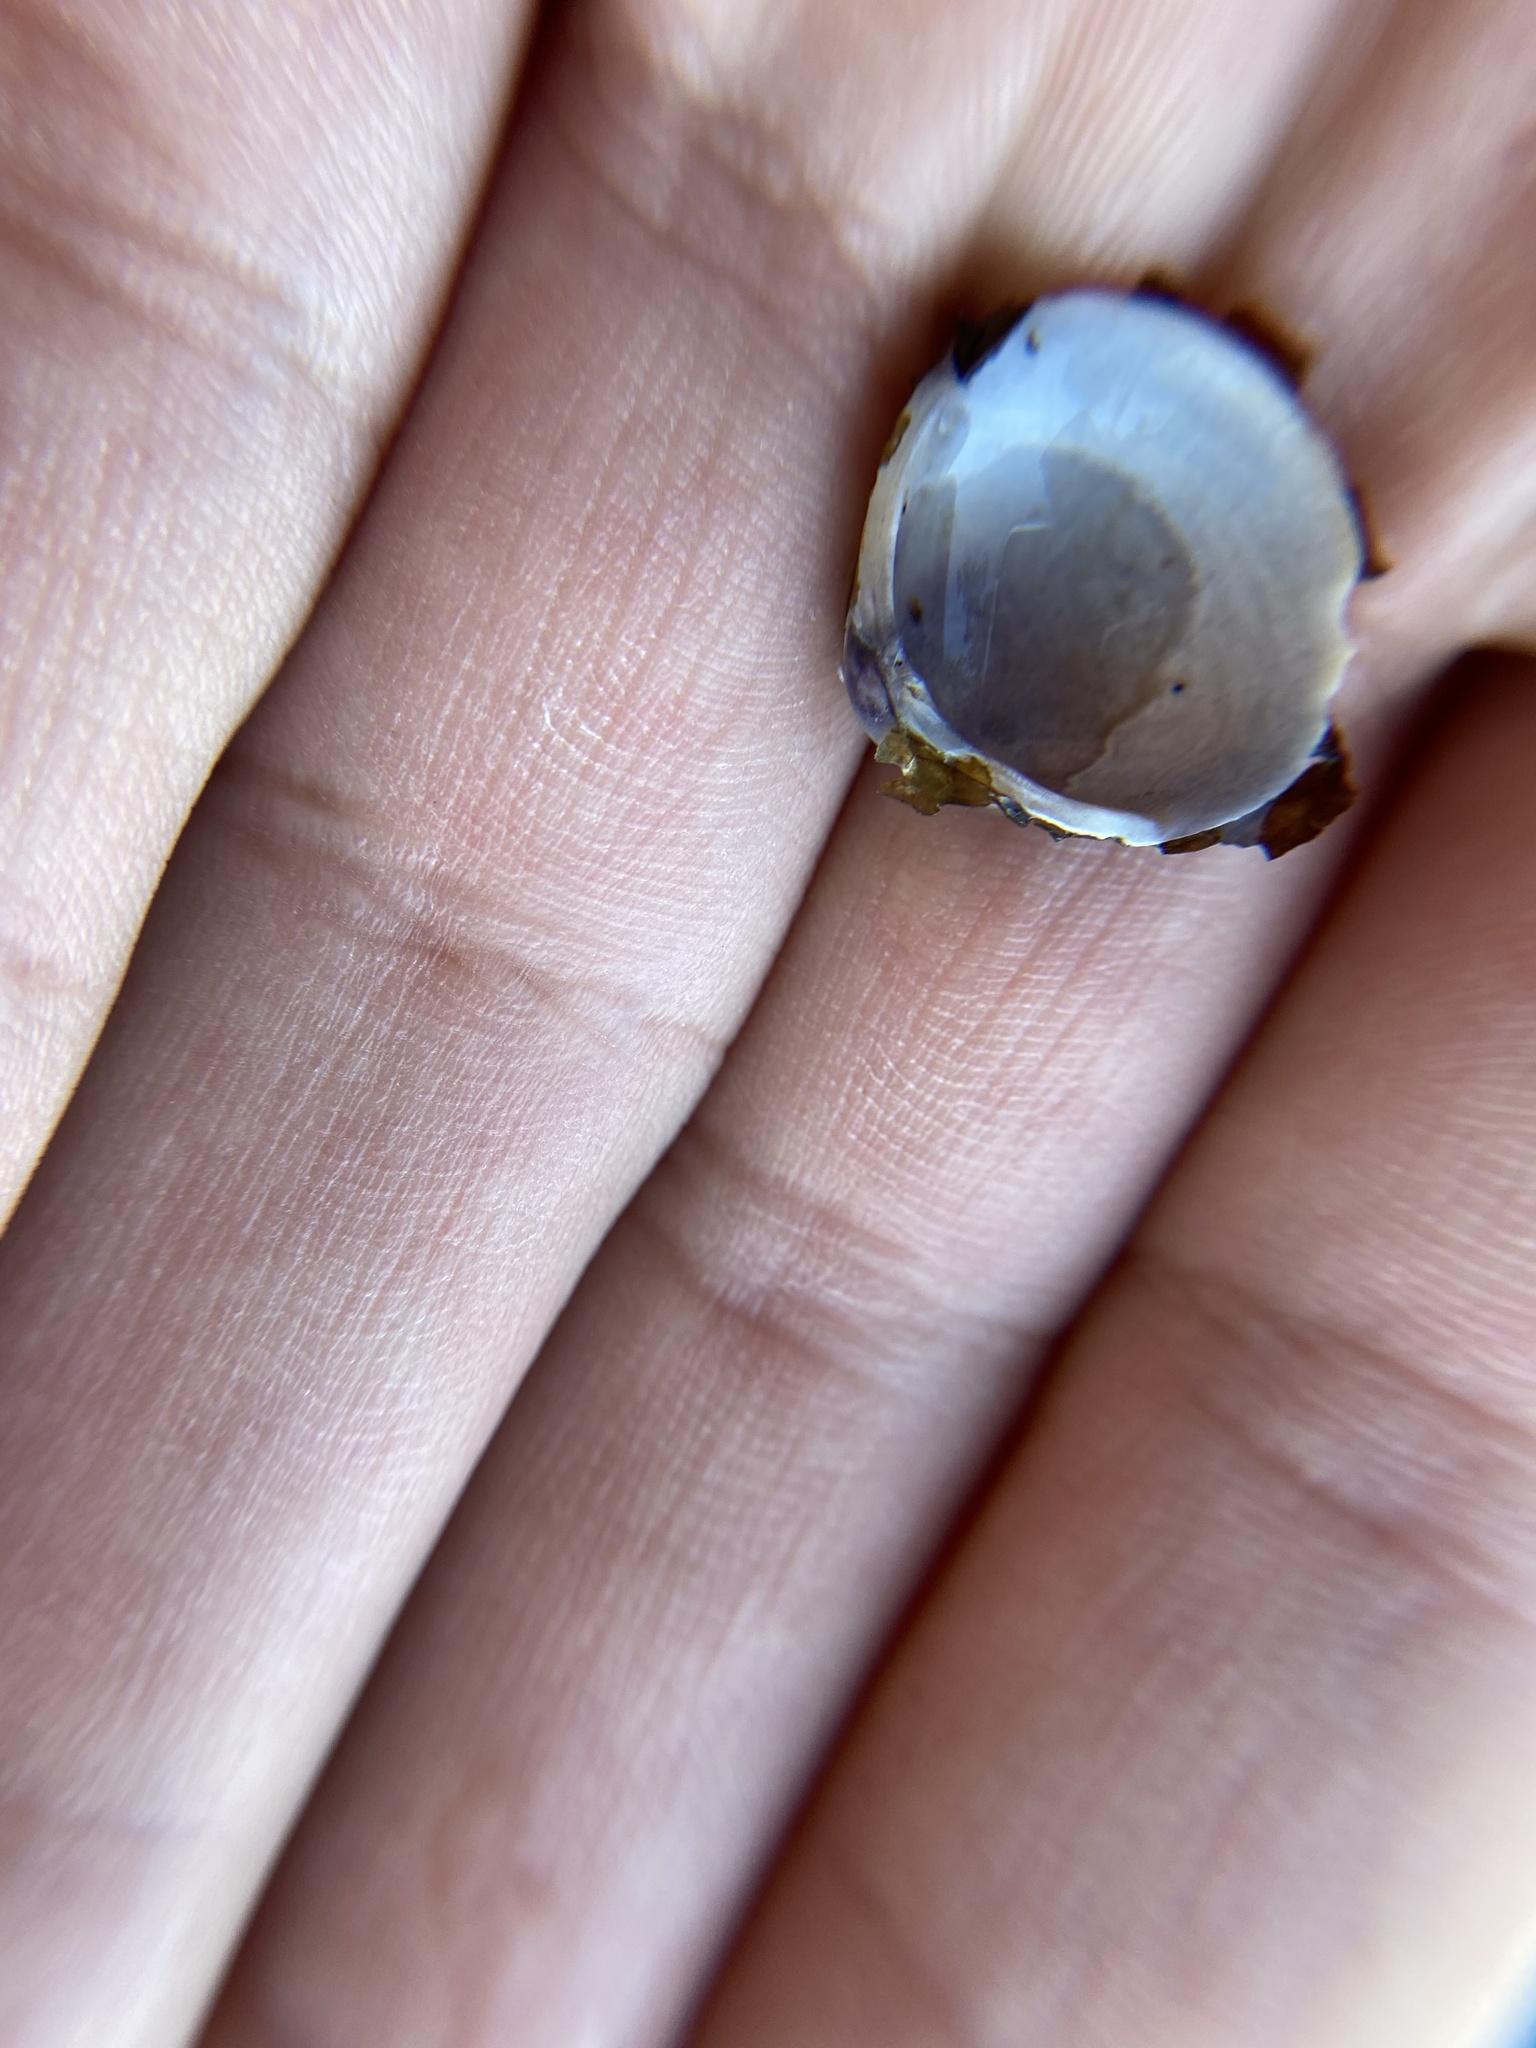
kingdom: Animalia
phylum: Mollusca
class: Bivalvia
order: Venerida
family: Cyrenidae
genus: Corbicula
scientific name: Corbicula fluminea
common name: Asian clam
